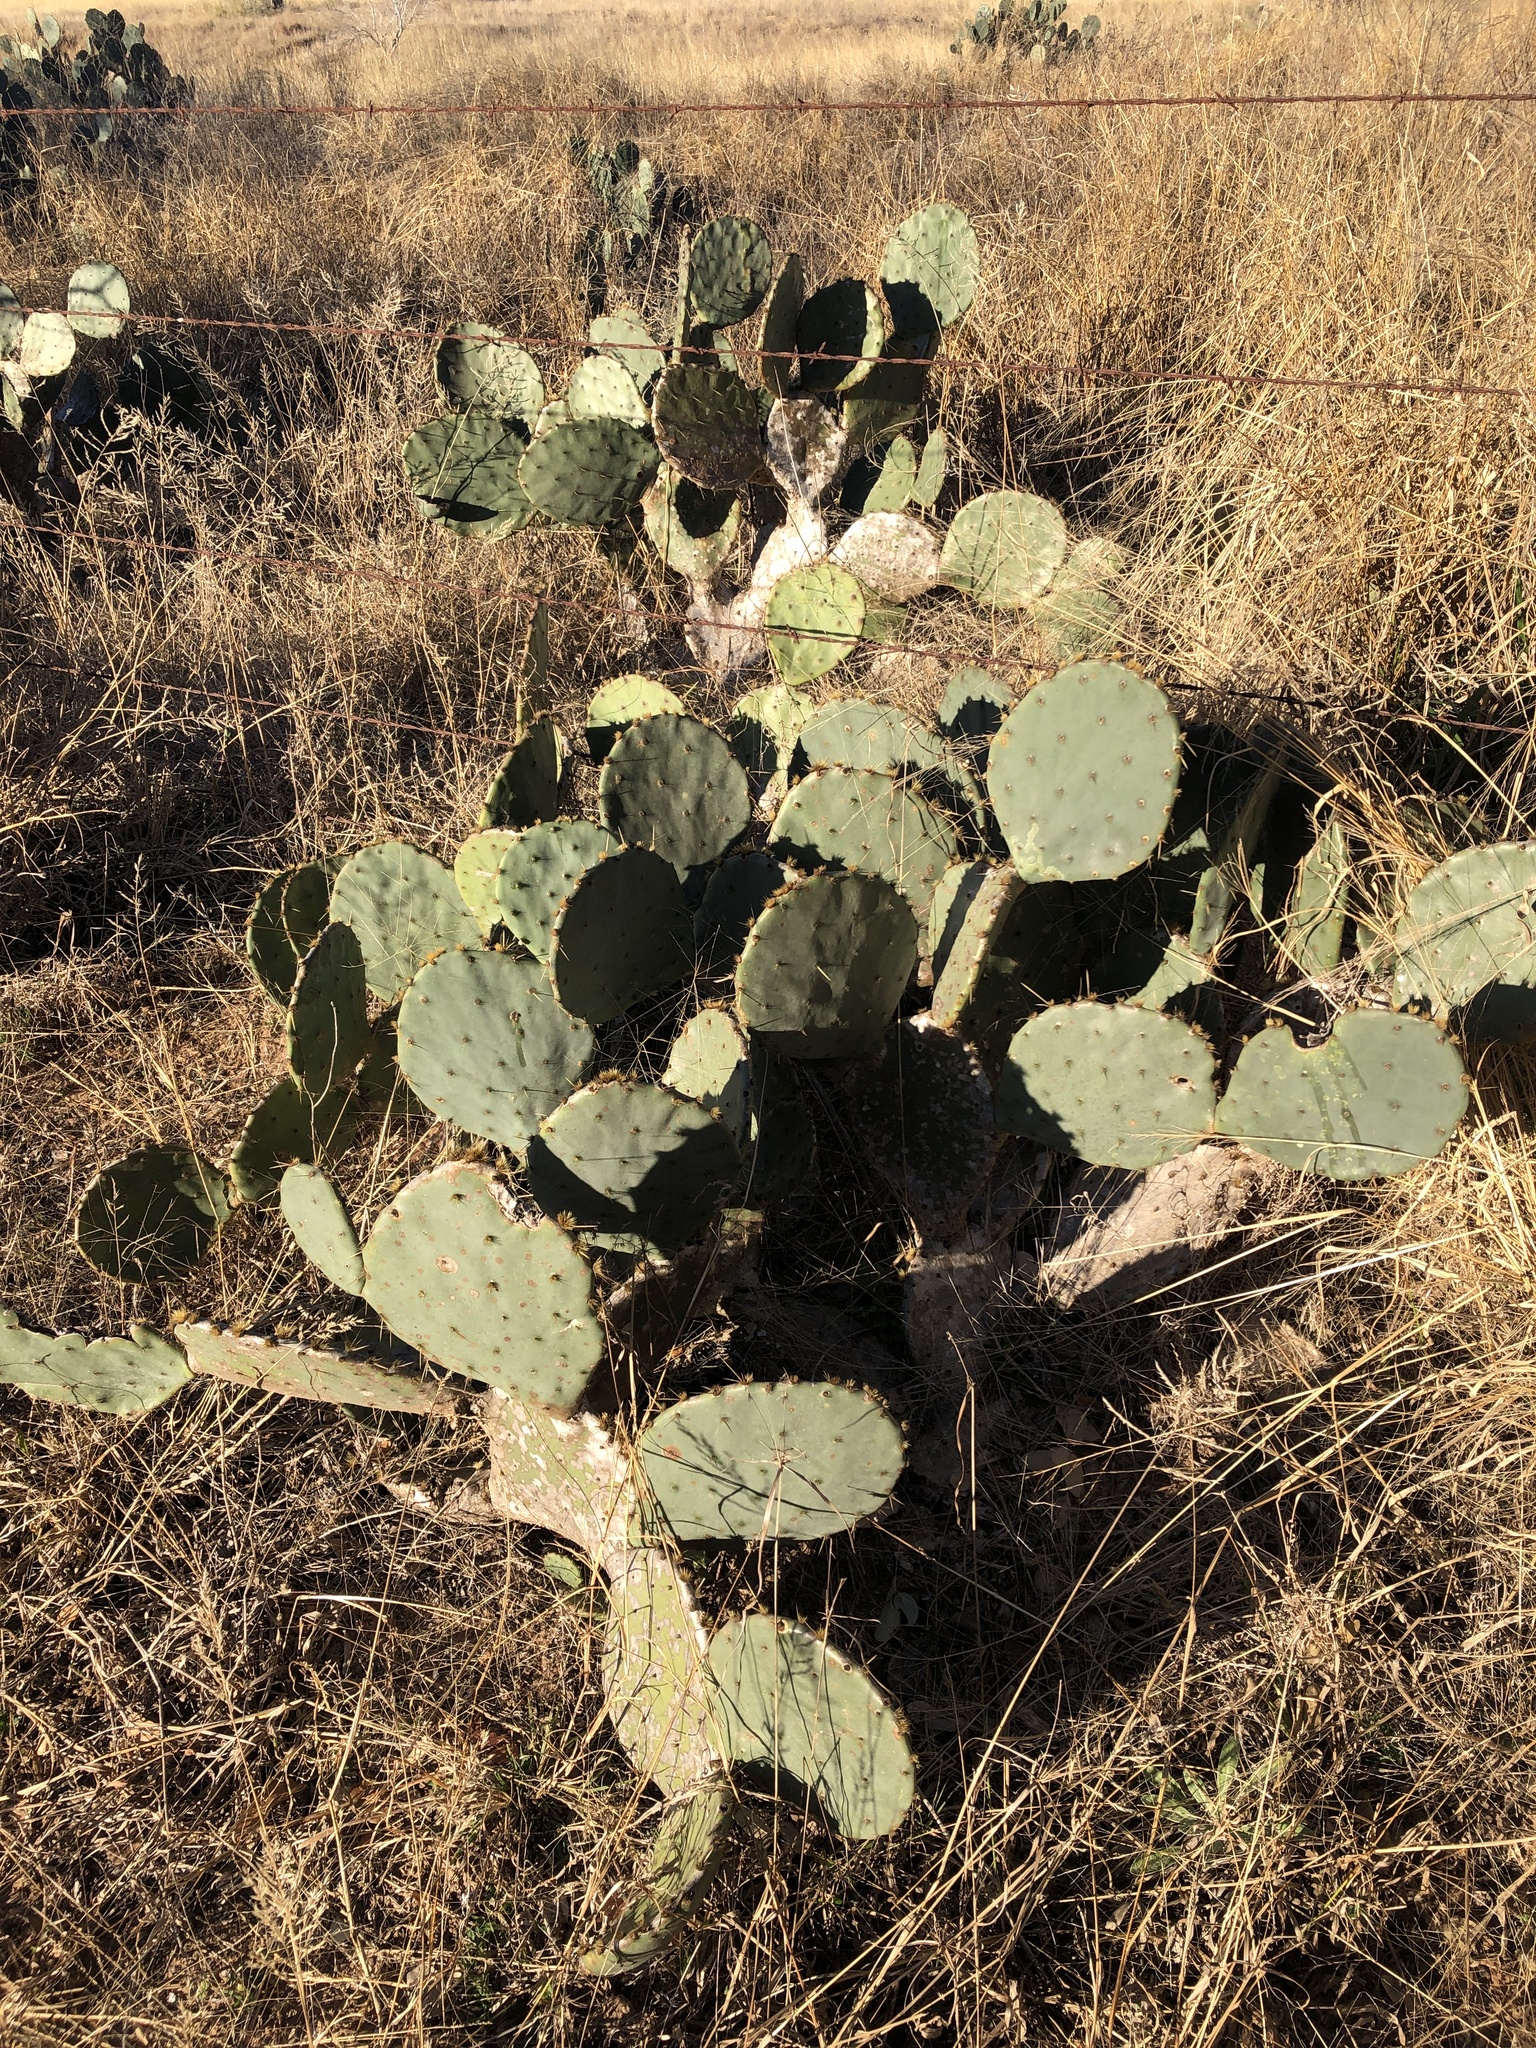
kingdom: Plantae
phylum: Tracheophyta
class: Magnoliopsida
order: Caryophyllales
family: Cactaceae
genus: Opuntia
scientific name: Opuntia orbiculata
